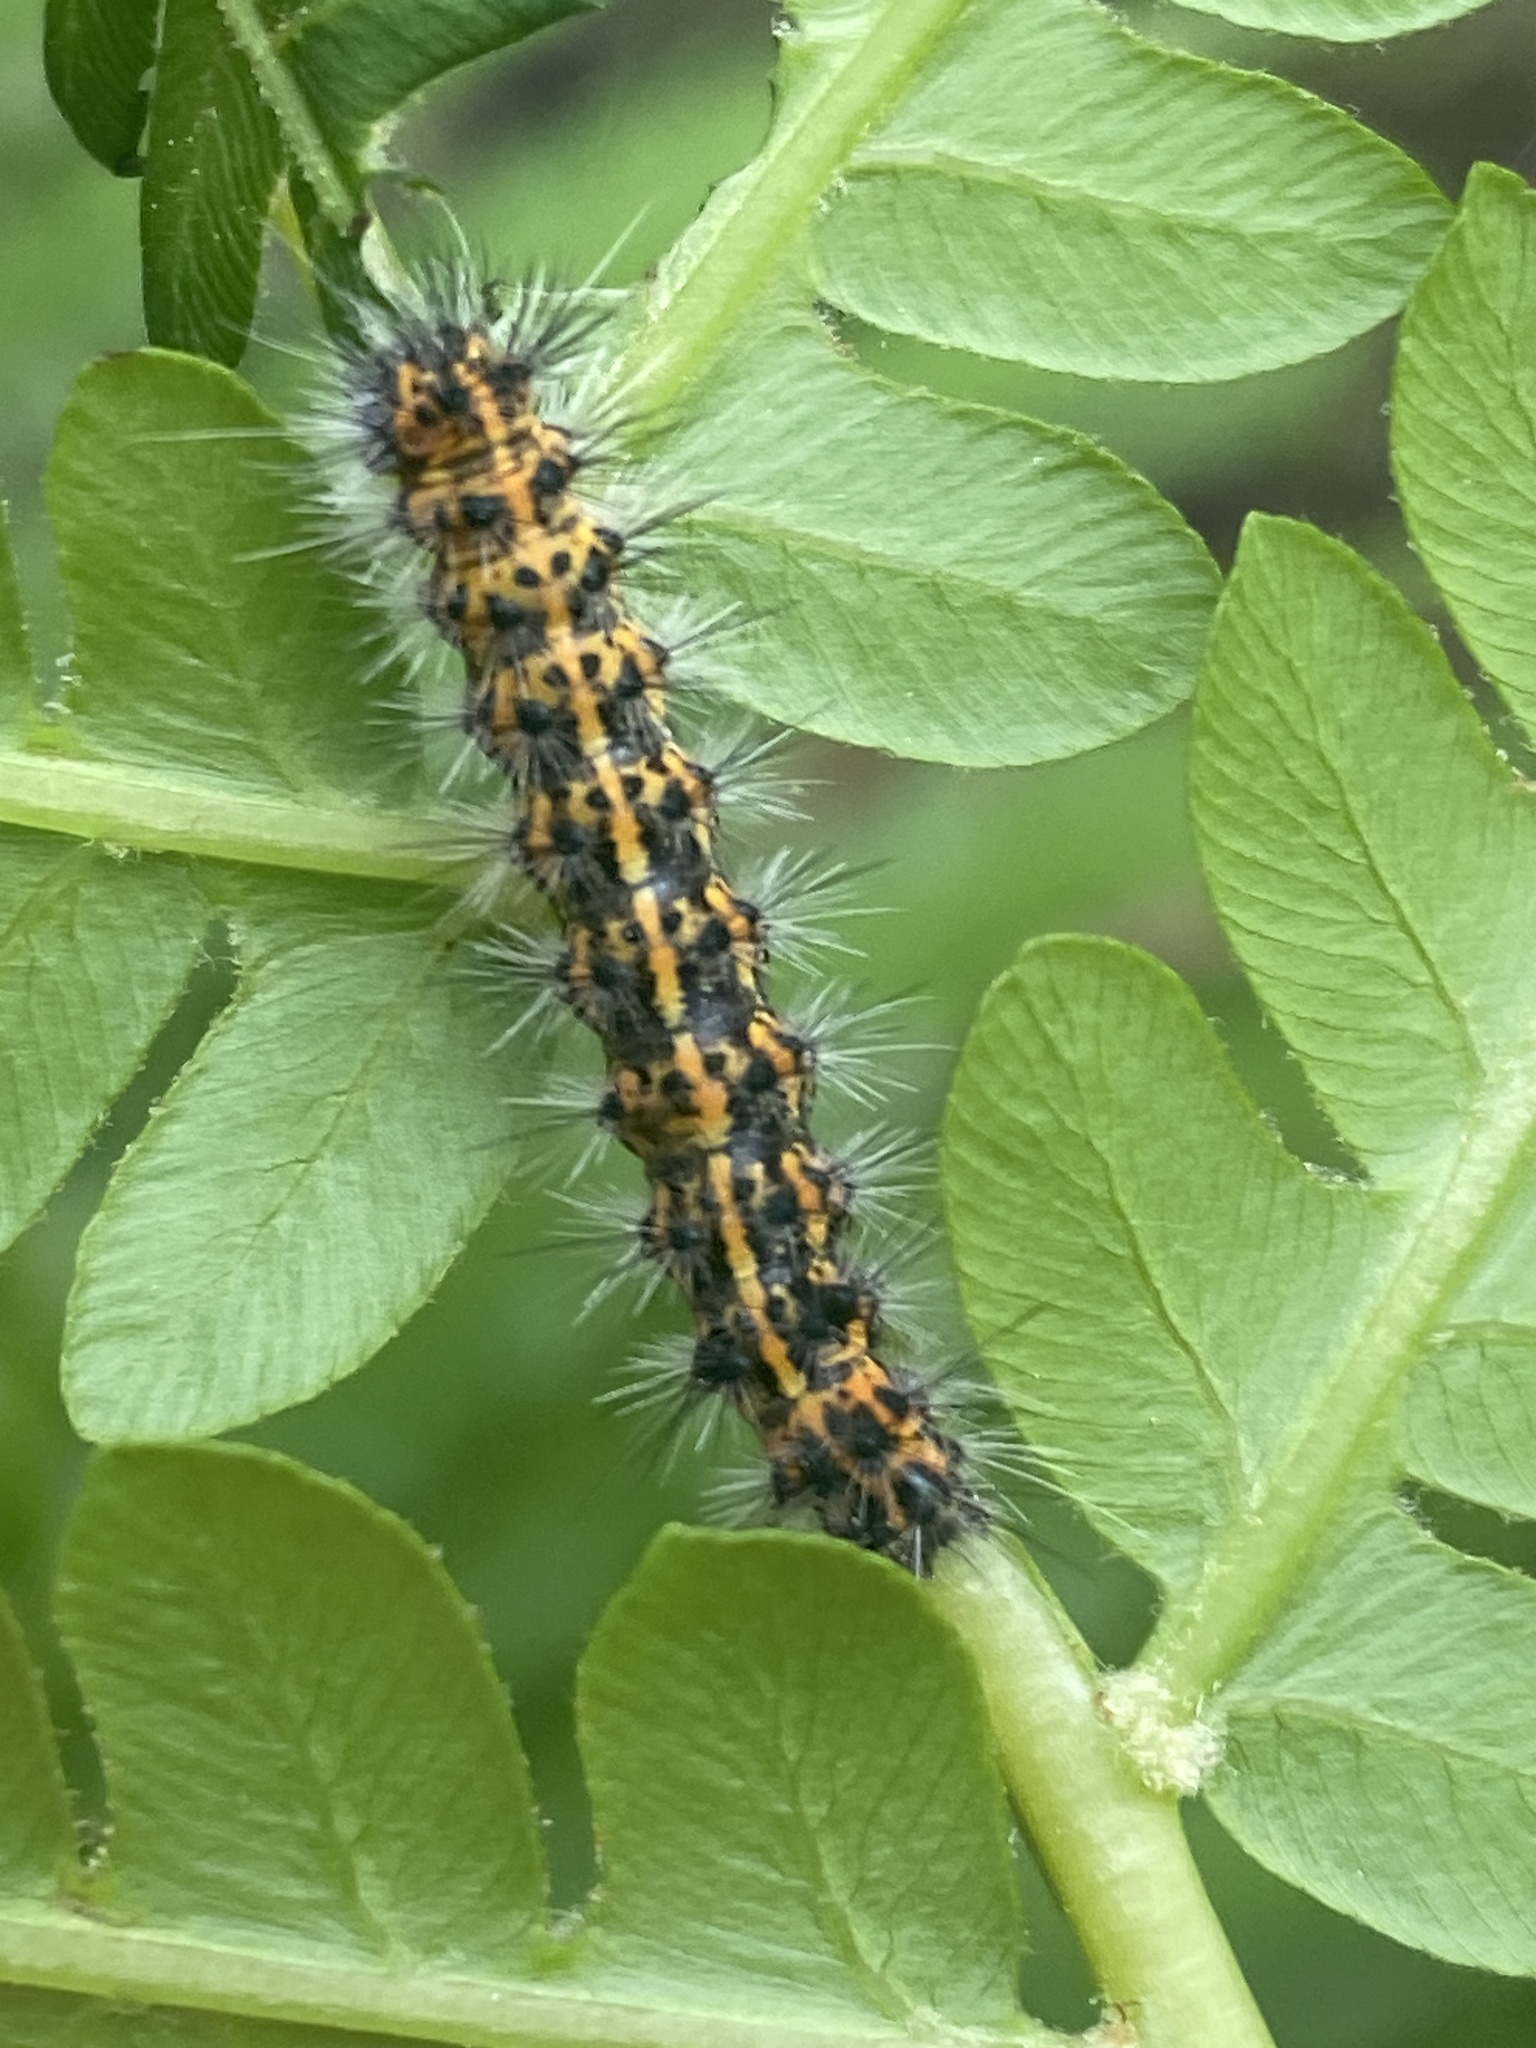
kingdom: Animalia
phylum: Arthropoda
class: Insecta
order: Lepidoptera
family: Erebidae
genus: Spilosoma
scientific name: Spilosoma dubia
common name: Dubious tiger moth
